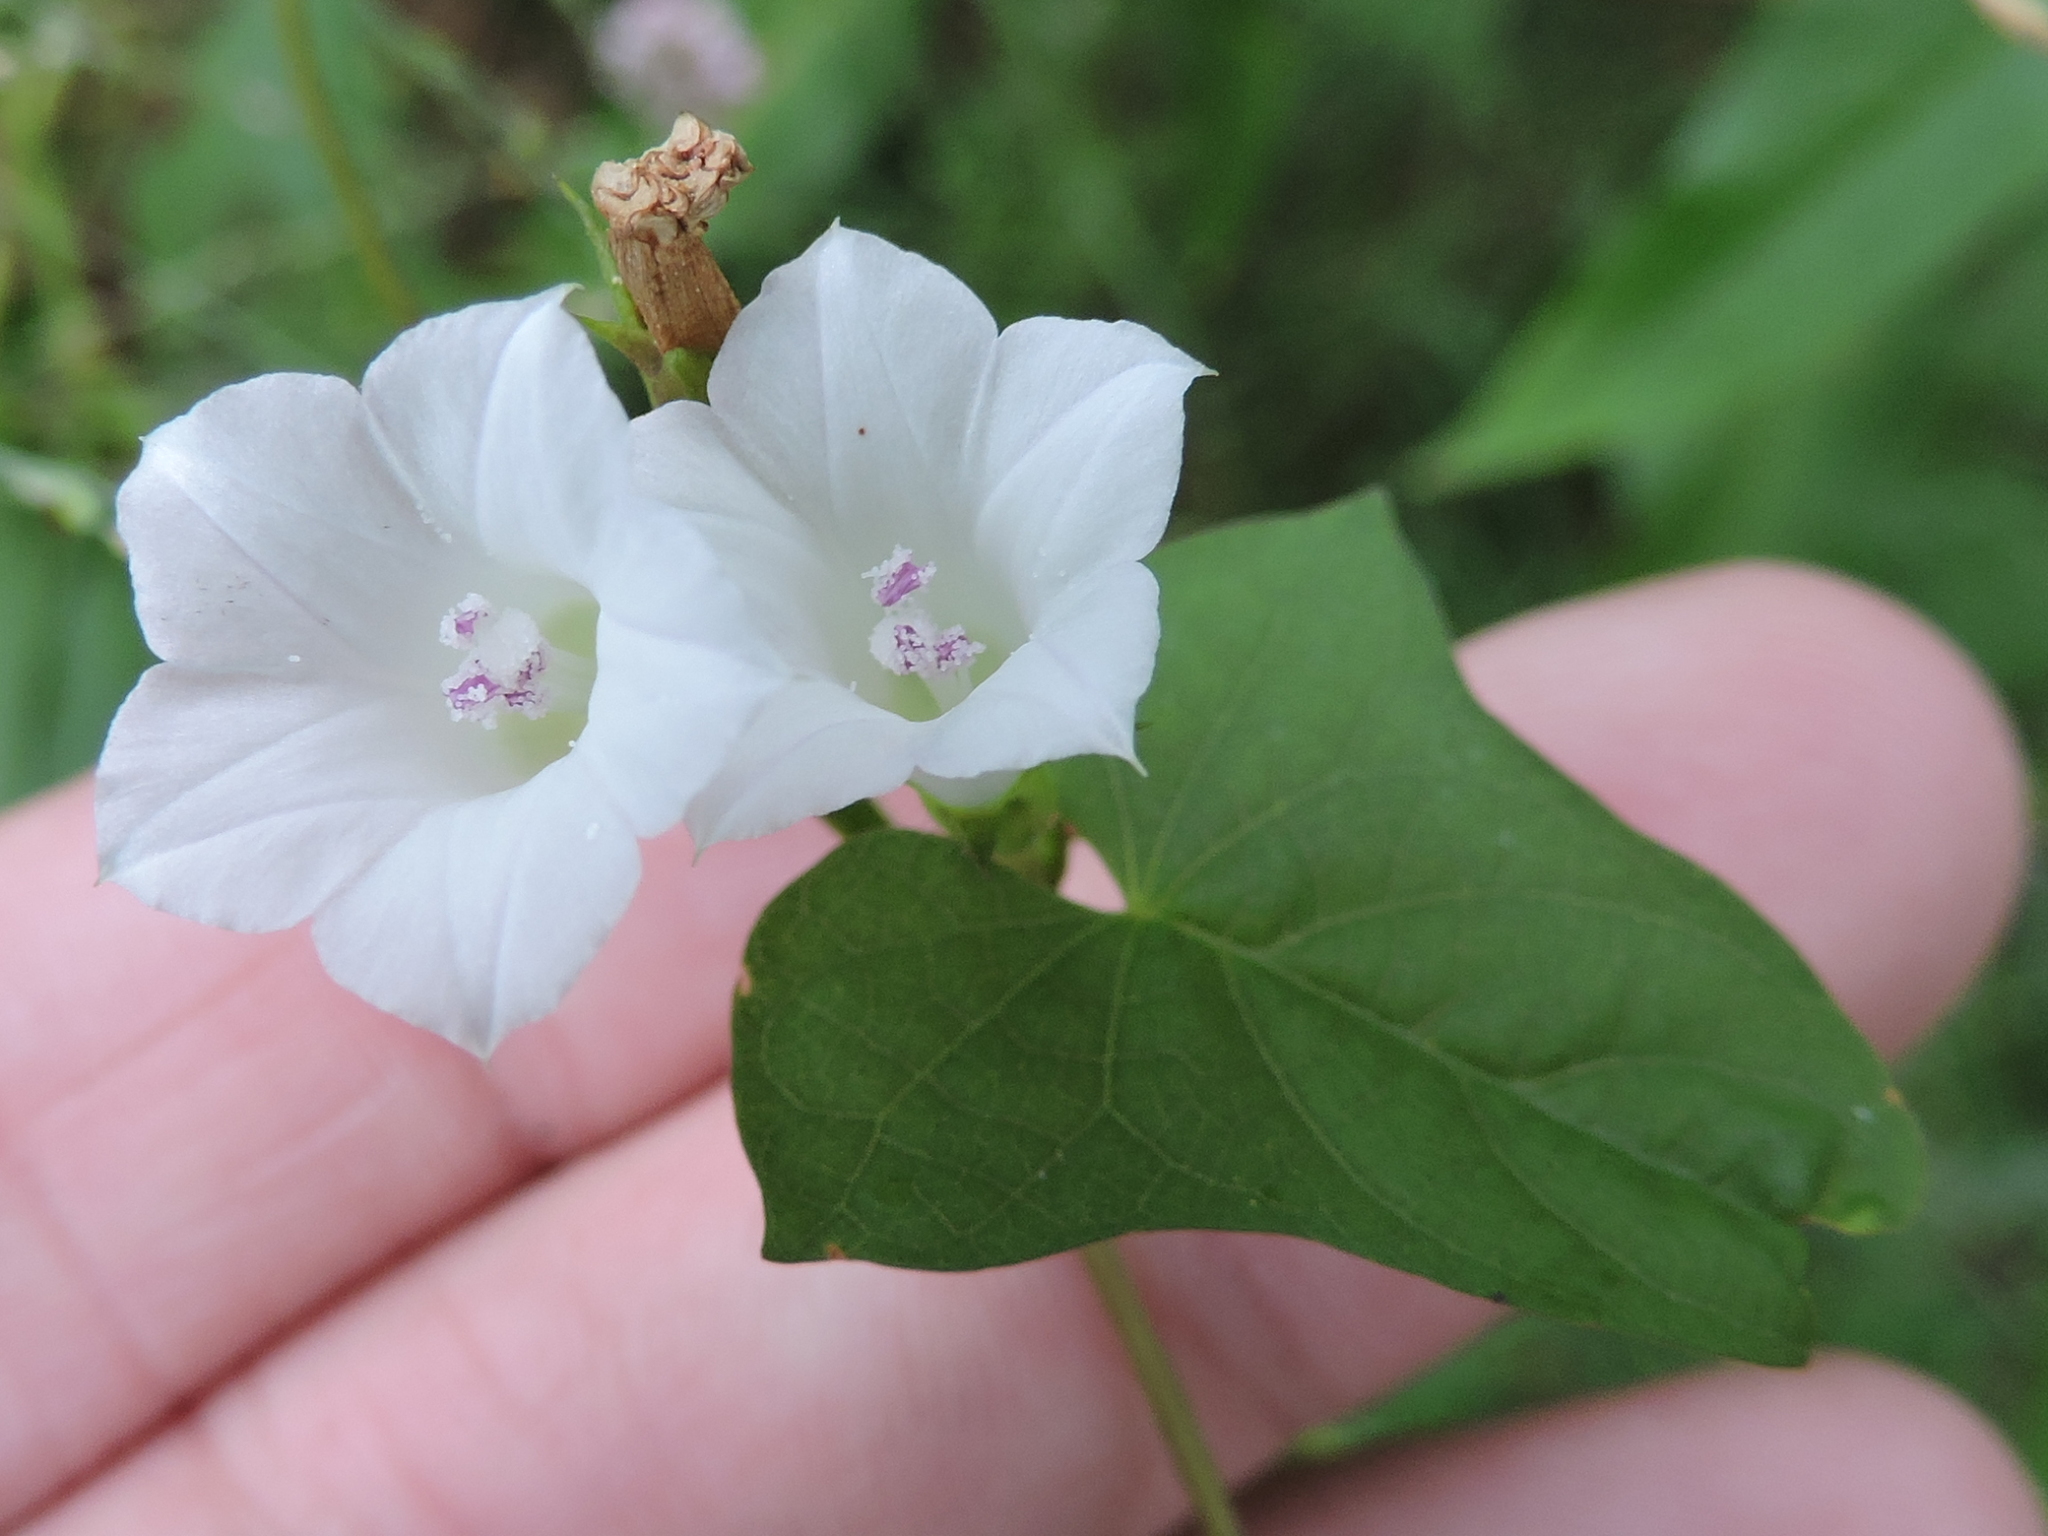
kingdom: Plantae
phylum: Tracheophyta
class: Magnoliopsida
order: Solanales
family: Convolvulaceae
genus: Ipomoea
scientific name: Ipomoea lacunosa
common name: White morning-glory
